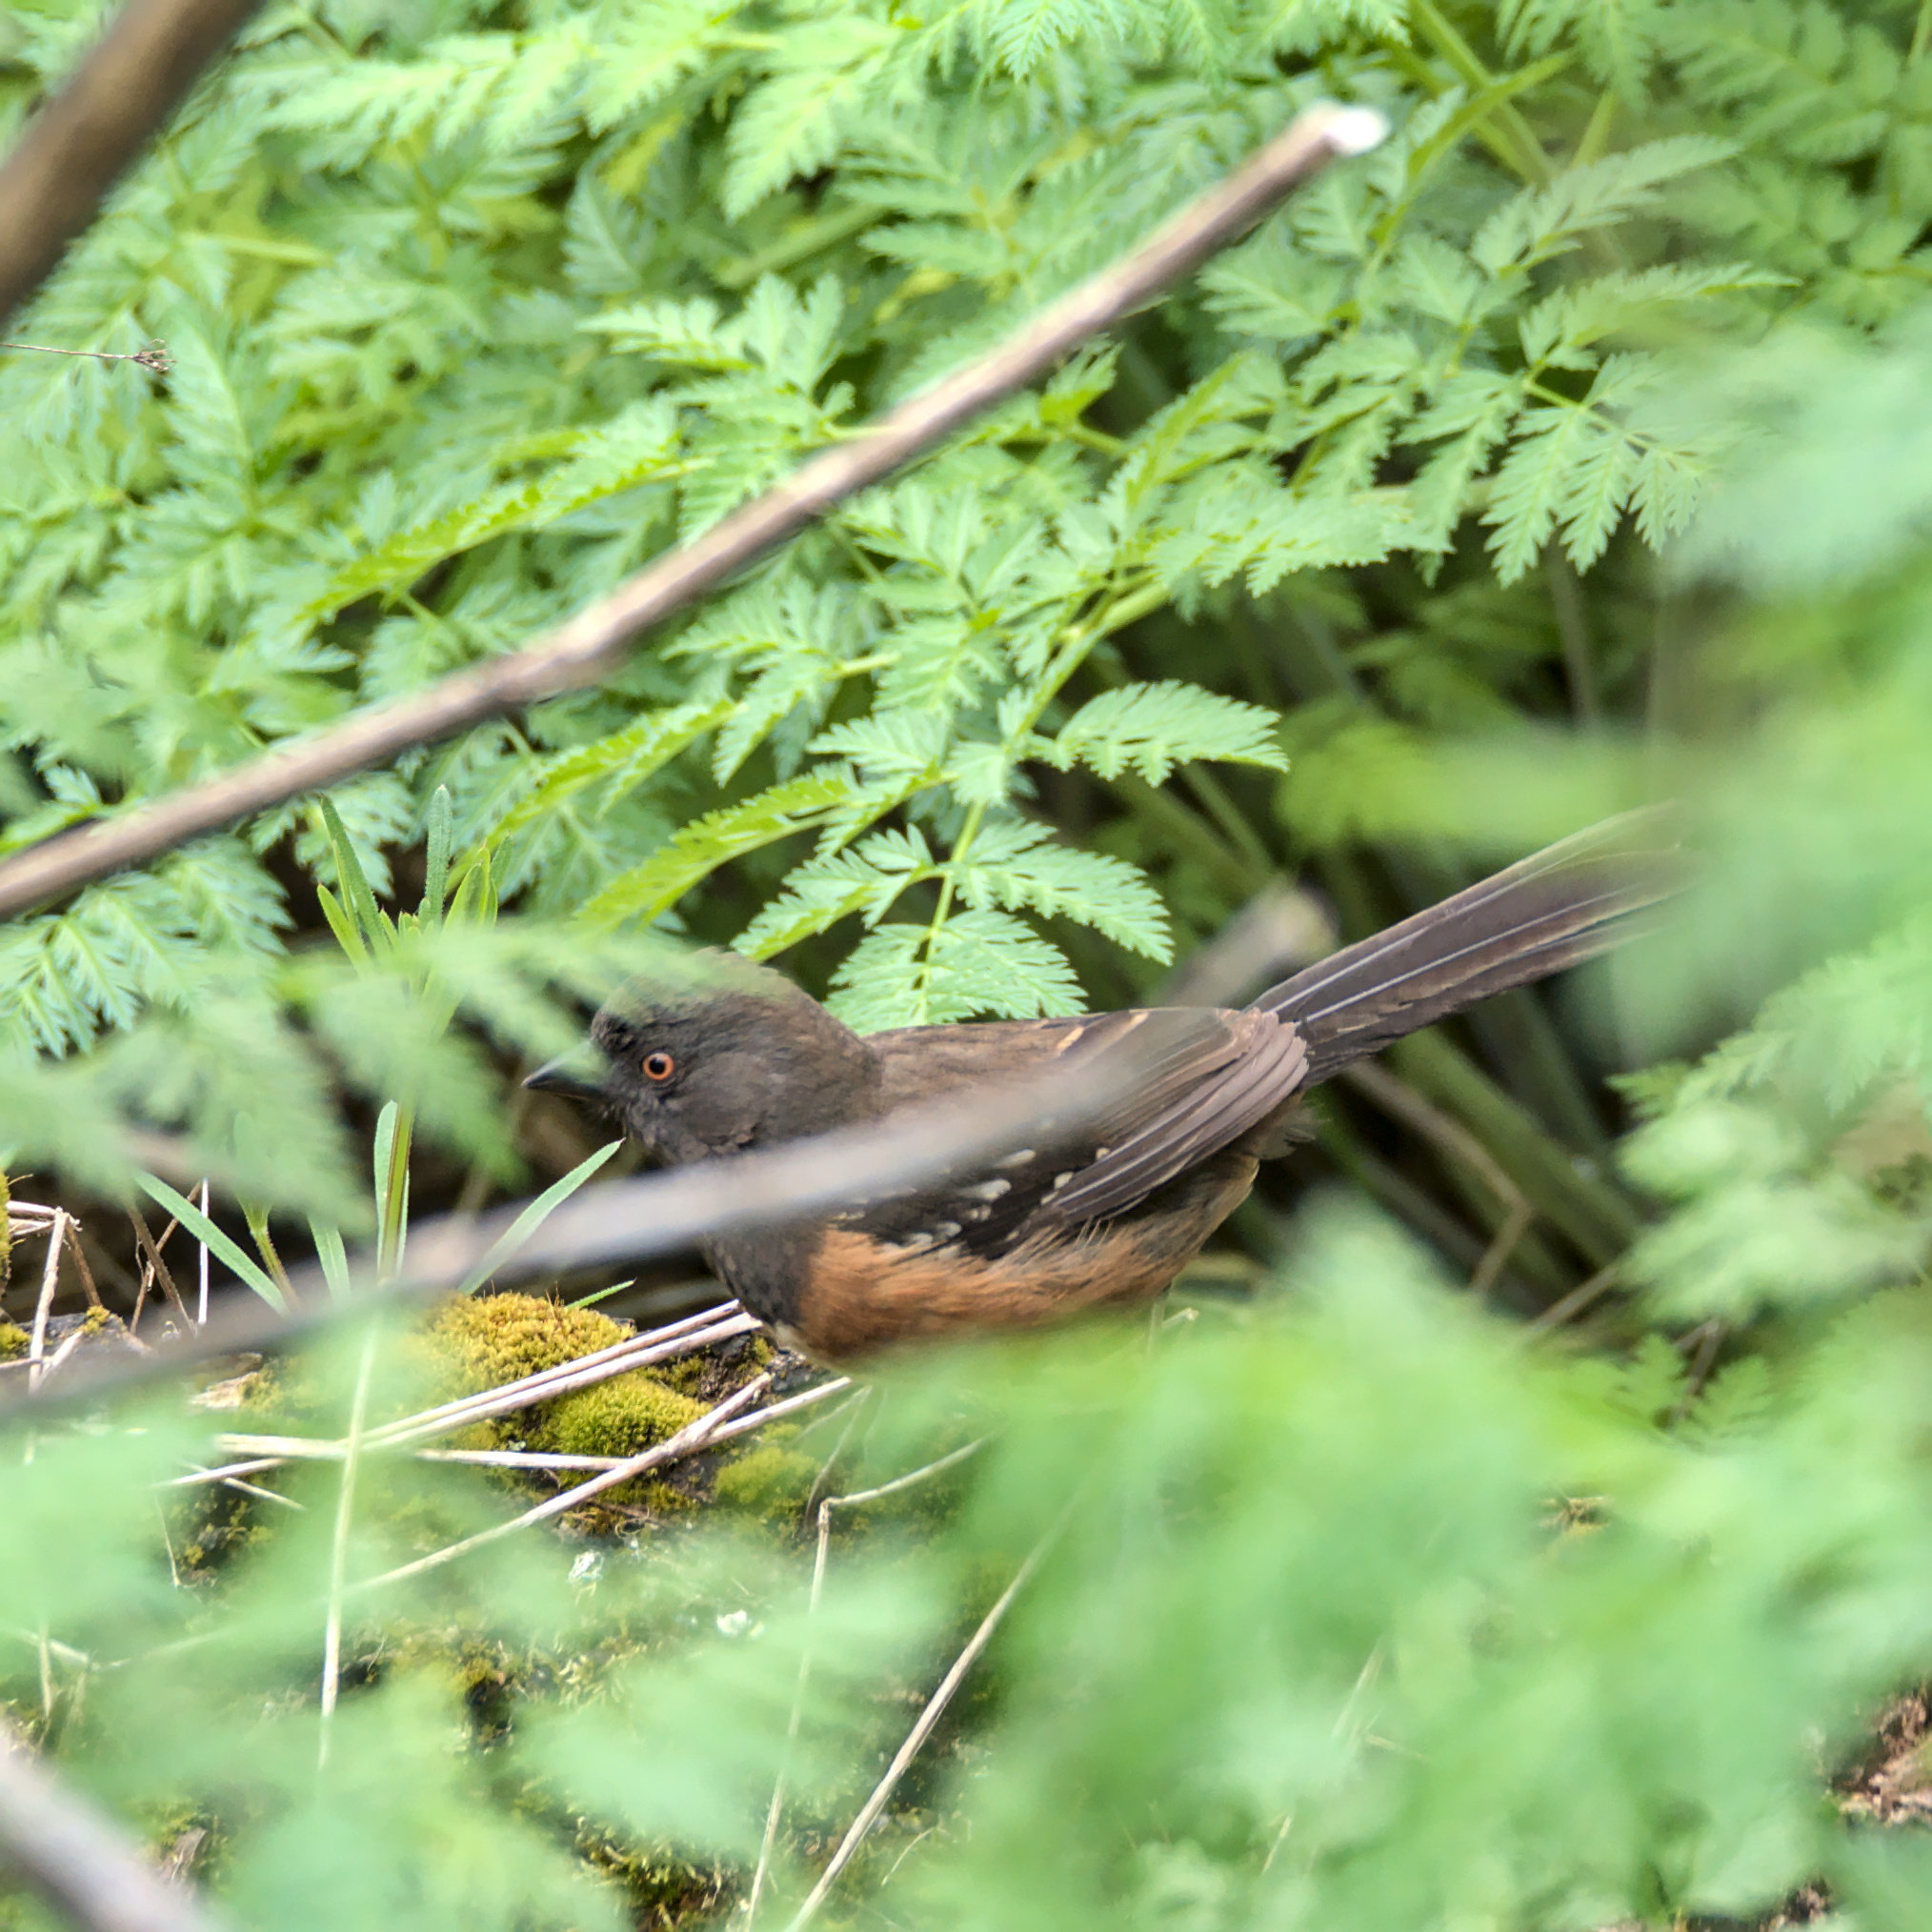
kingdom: Animalia
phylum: Chordata
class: Aves
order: Passeriformes
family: Passerellidae
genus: Pipilo
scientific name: Pipilo maculatus
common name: Spotted towhee
